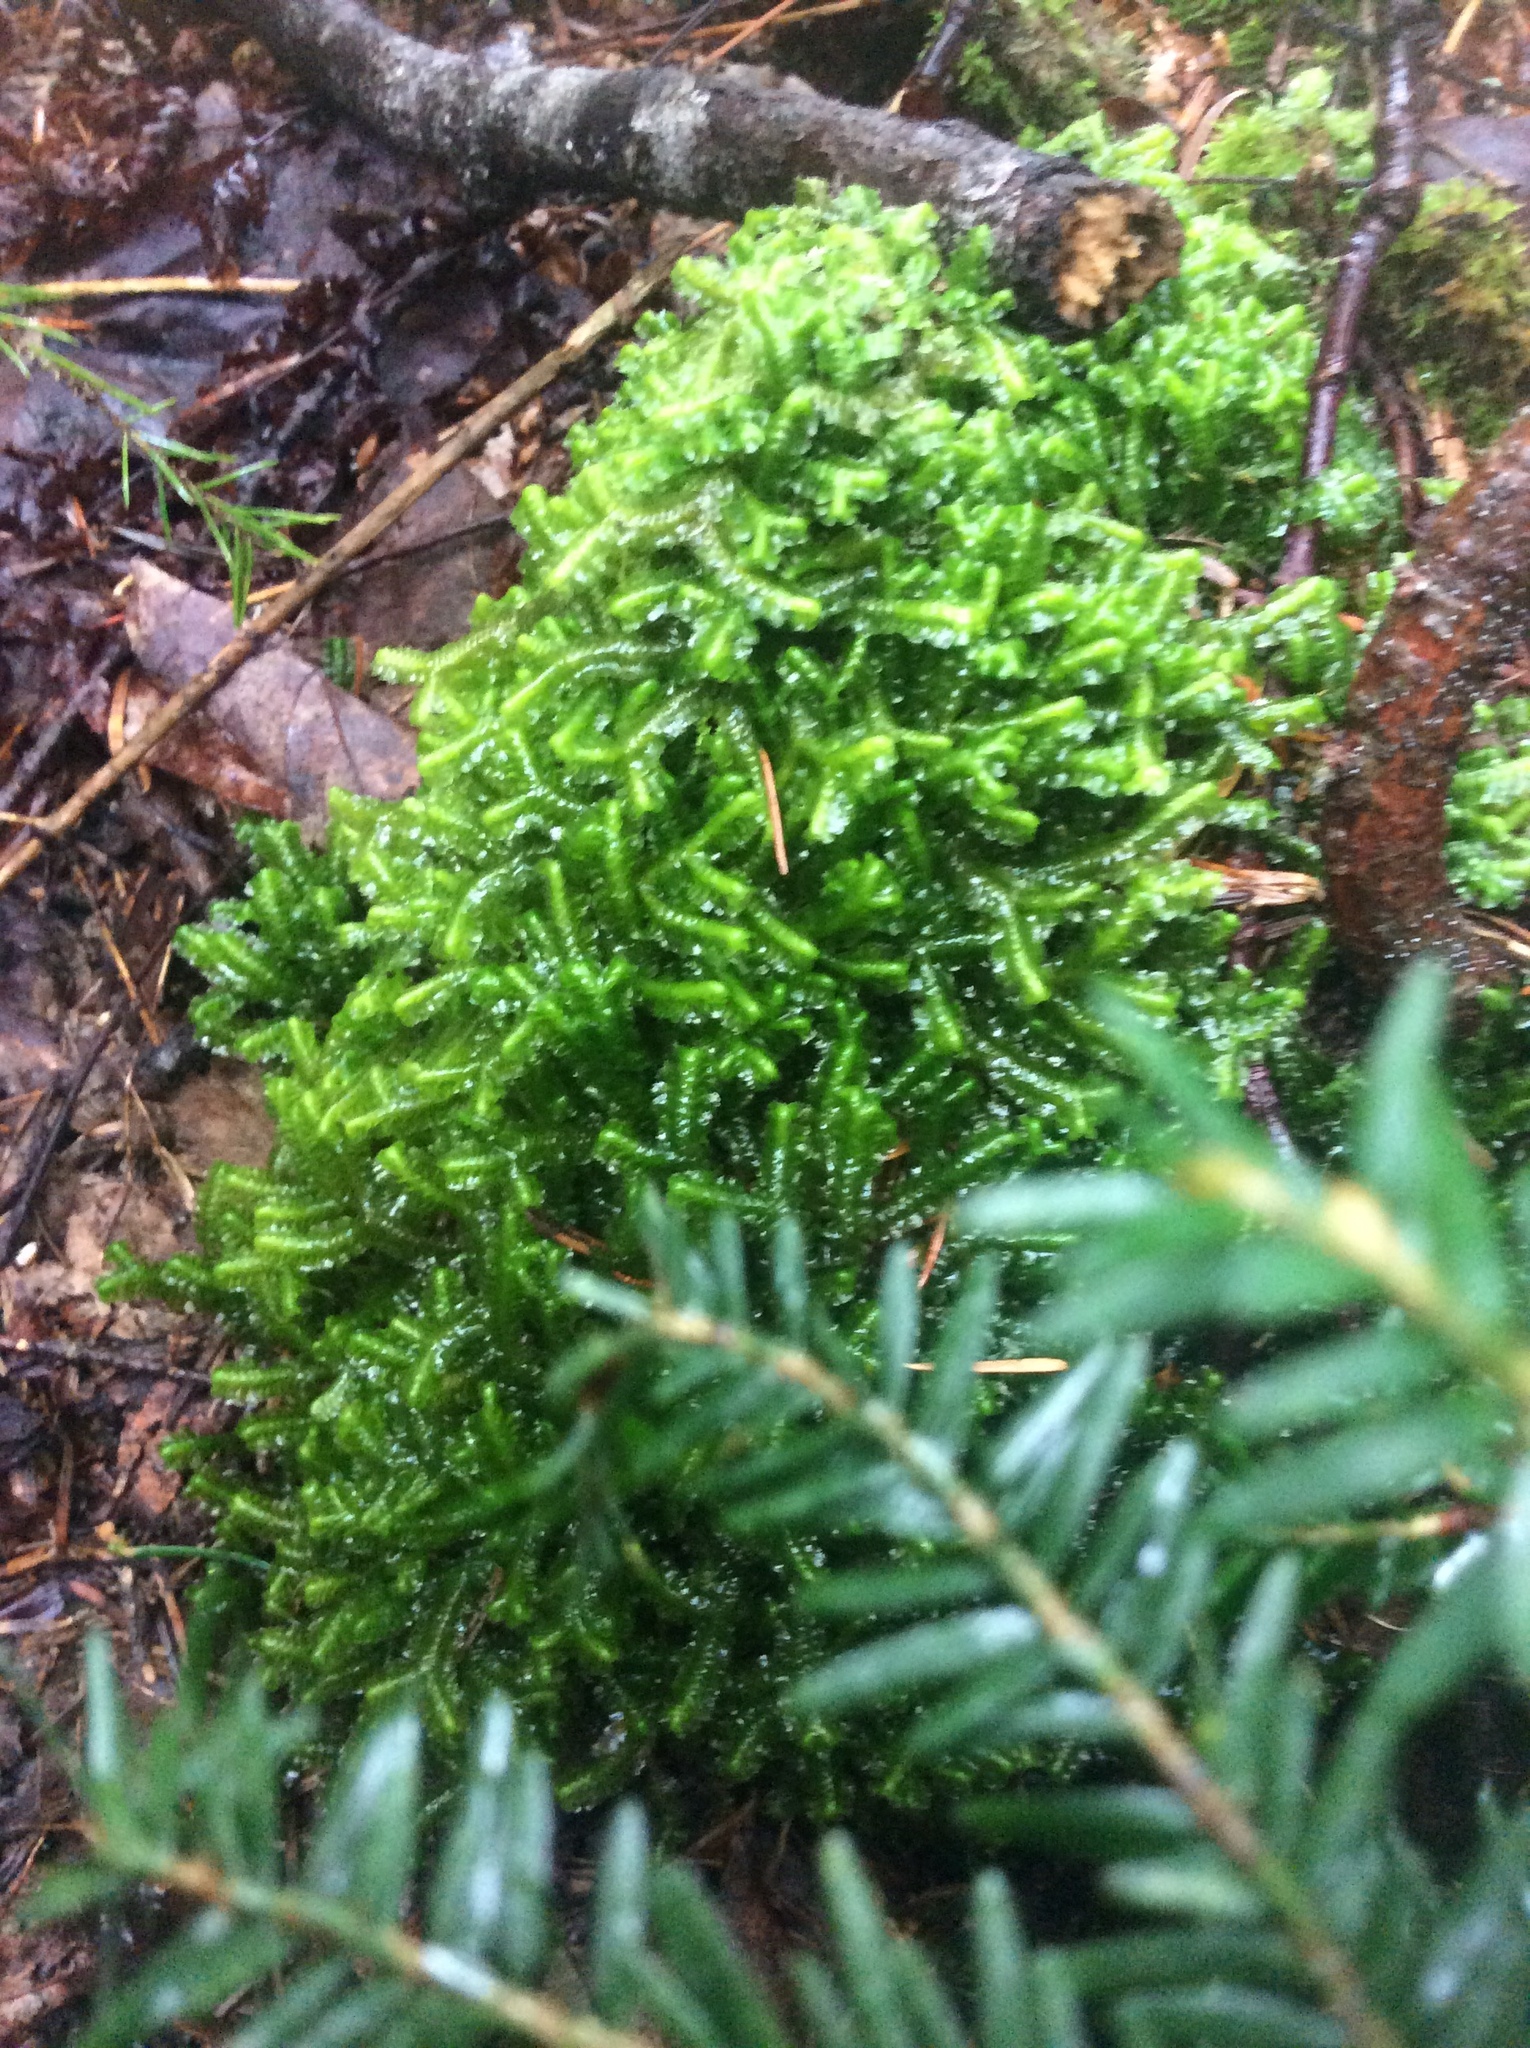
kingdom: Plantae
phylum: Marchantiophyta
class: Jungermanniopsida
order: Jungermanniales
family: Lepidoziaceae
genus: Bazzania
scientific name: Bazzania trilobata
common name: Three-lobed whipwort
